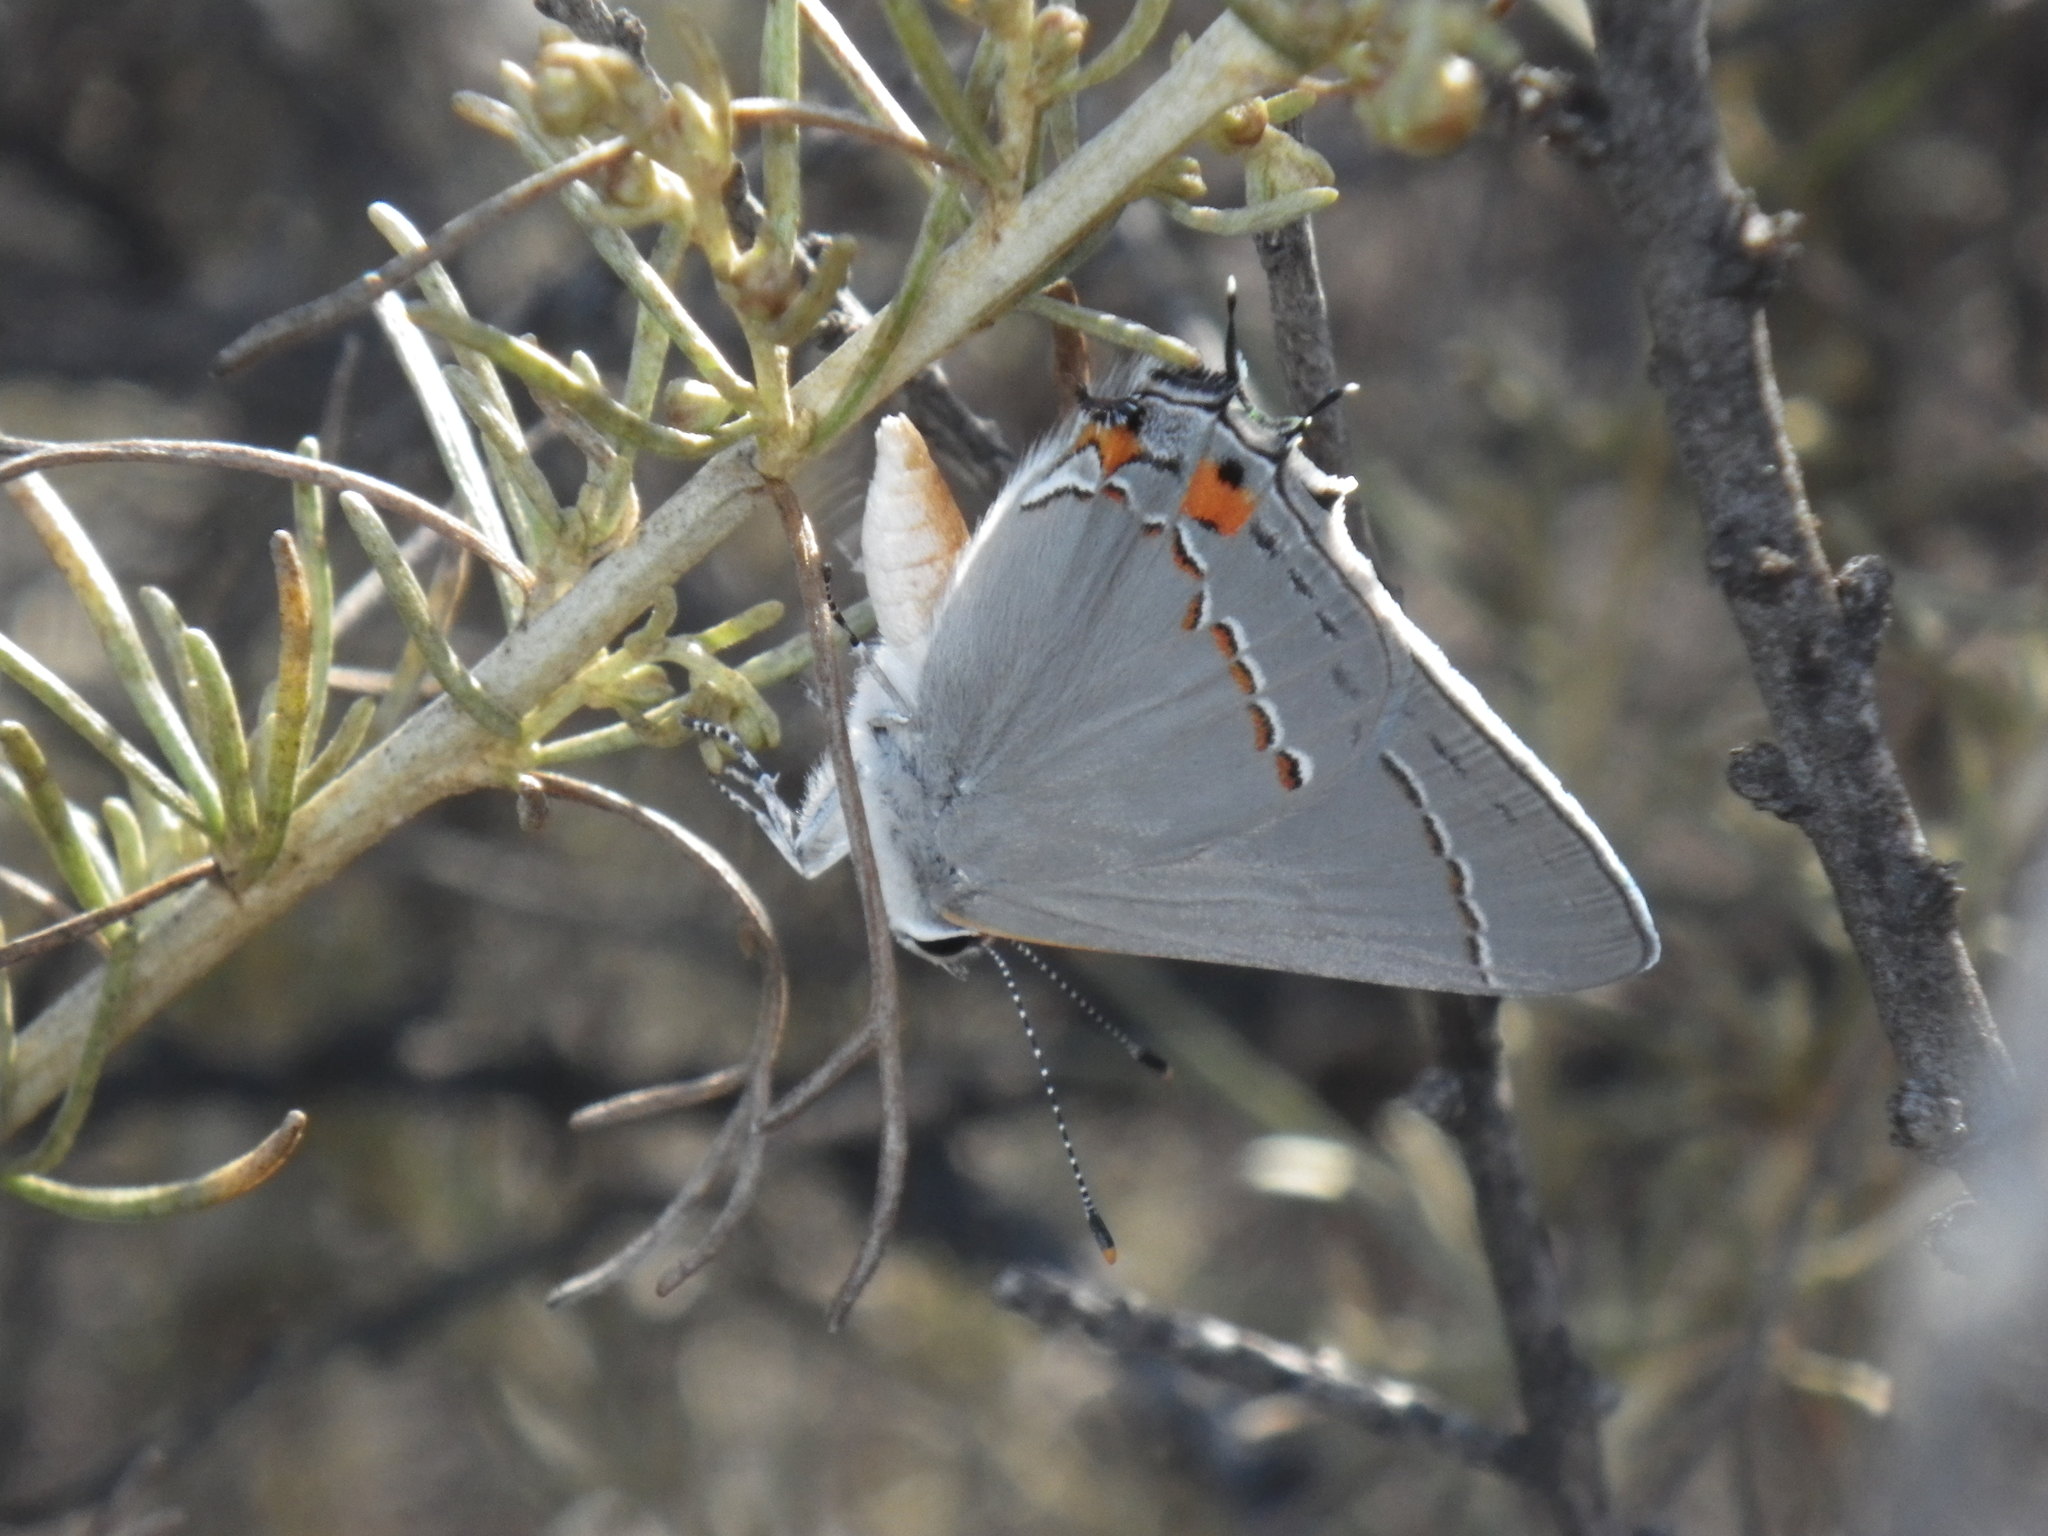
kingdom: Animalia
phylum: Arthropoda
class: Insecta
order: Lepidoptera
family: Lycaenidae
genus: Strymon
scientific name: Strymon melinus
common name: Gray hairstreak
